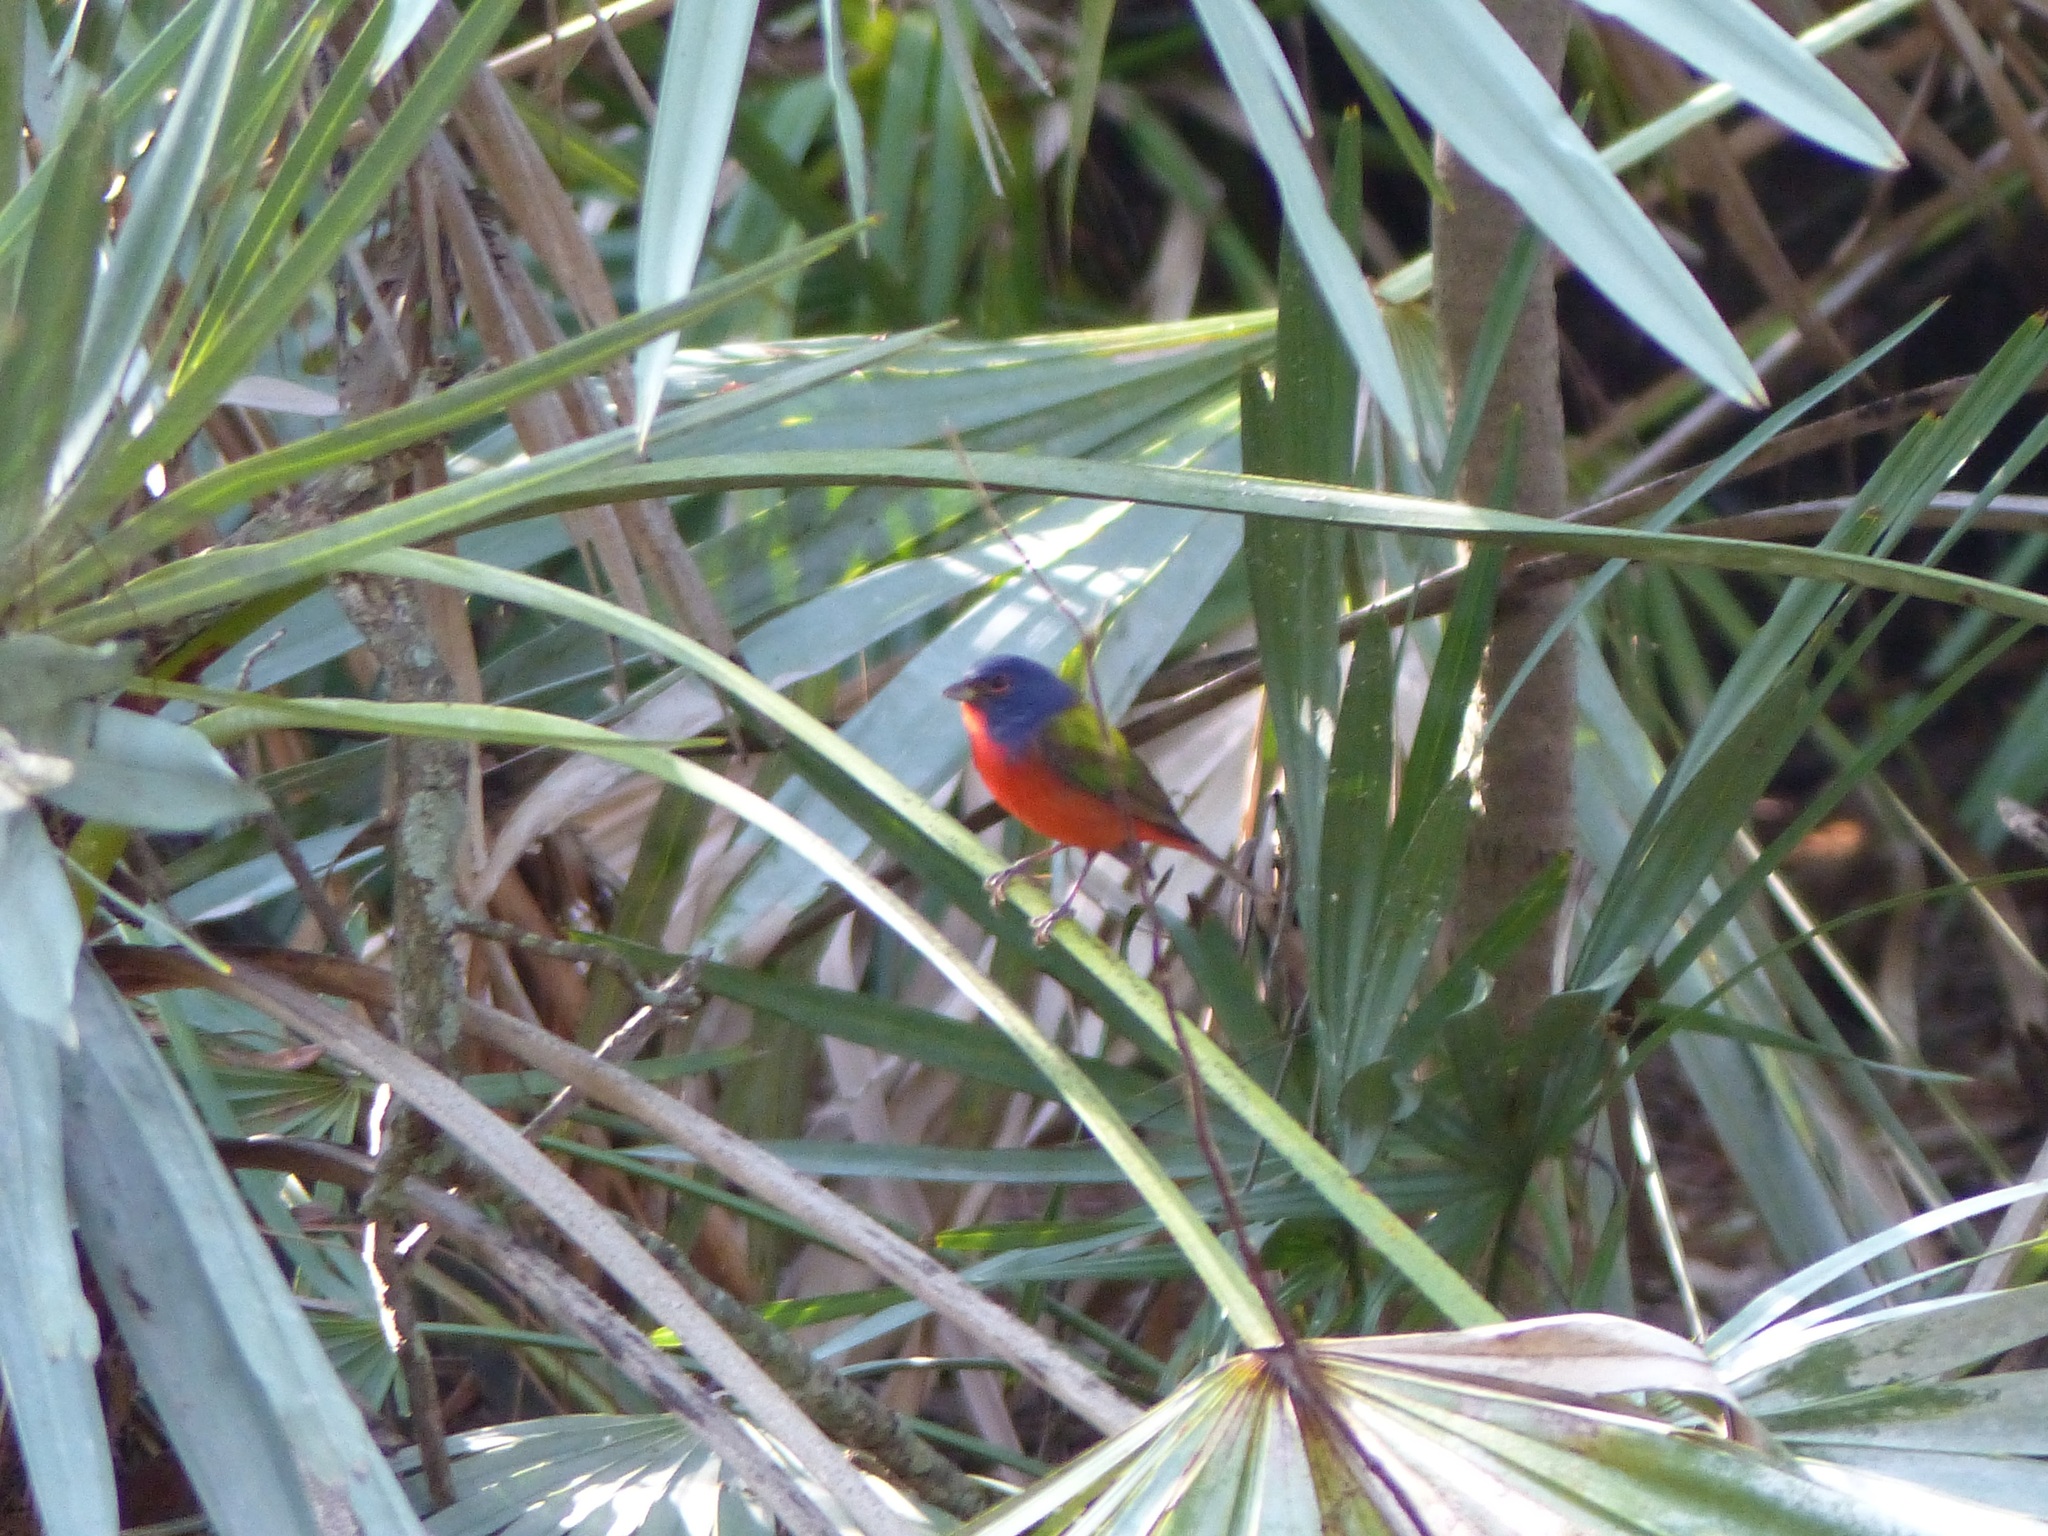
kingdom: Animalia
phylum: Chordata
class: Aves
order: Passeriformes
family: Cardinalidae
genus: Passerina
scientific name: Passerina ciris
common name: Painted bunting
